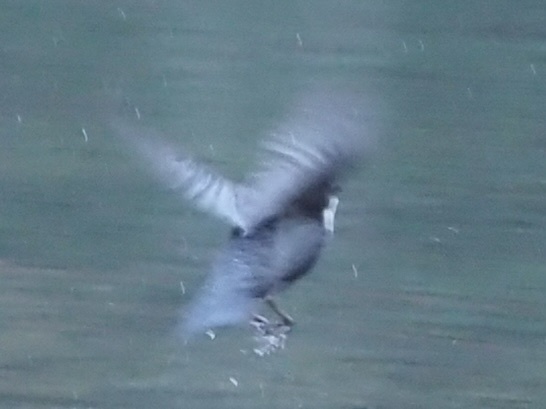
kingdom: Animalia
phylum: Chordata
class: Aves
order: Passeriformes
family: Cinclidae
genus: Cinclus
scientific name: Cinclus cinclus
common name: White-throated dipper
